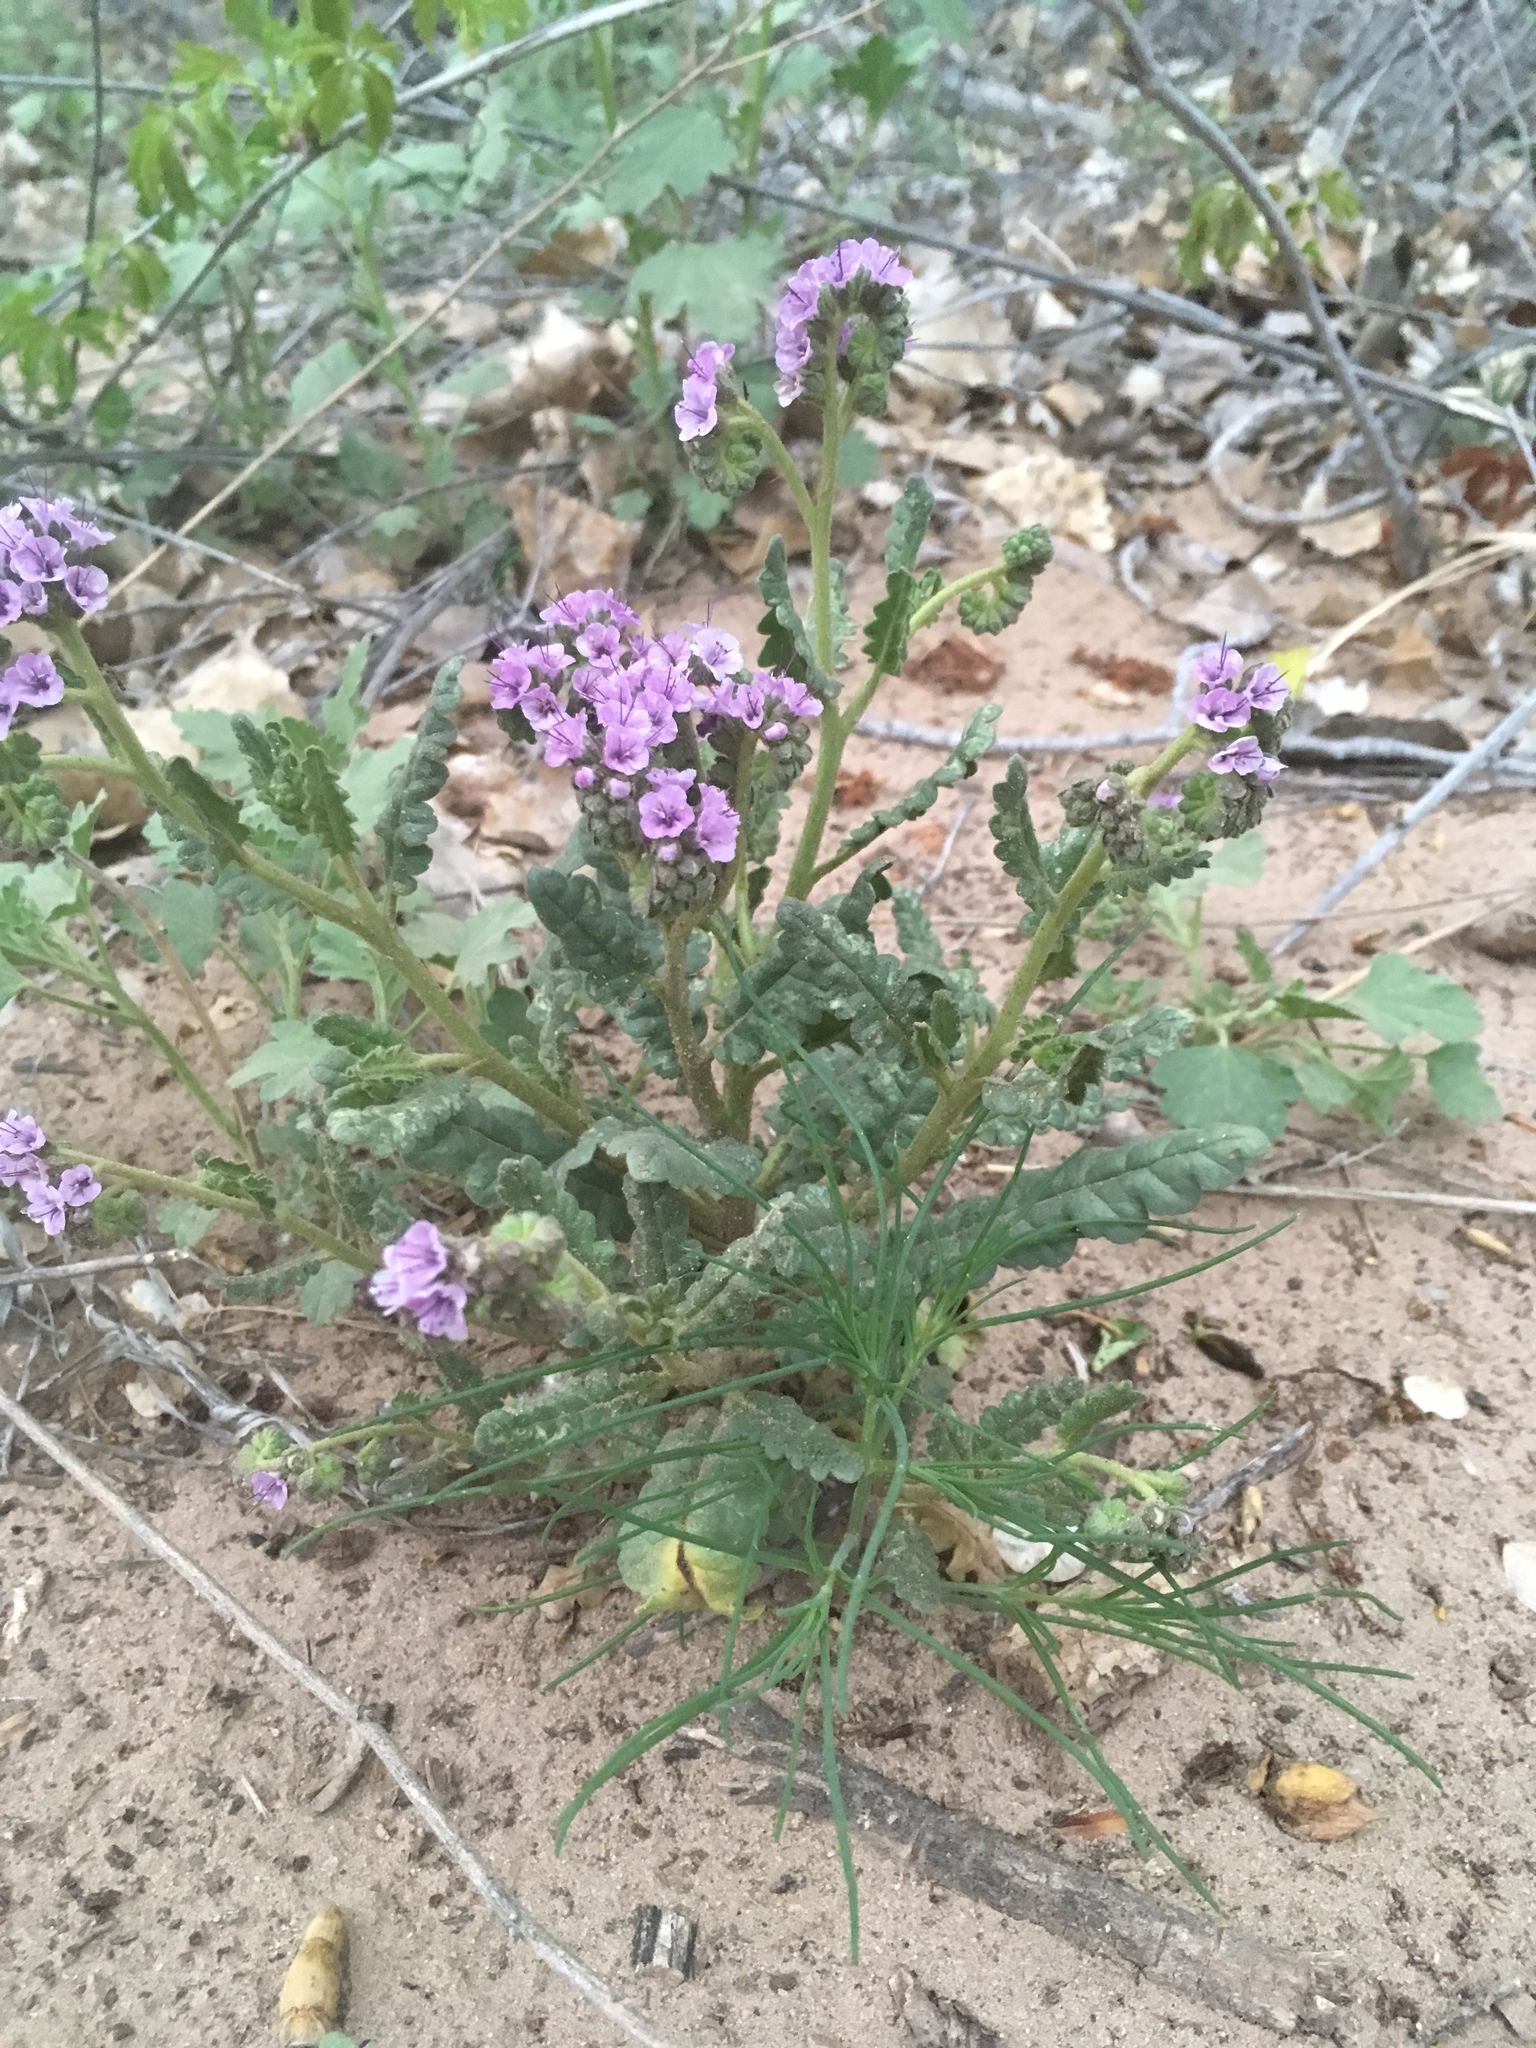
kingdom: Plantae
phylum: Tracheophyta
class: Magnoliopsida
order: Boraginales
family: Hydrophyllaceae
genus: Phacelia
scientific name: Phacelia integrifolia
